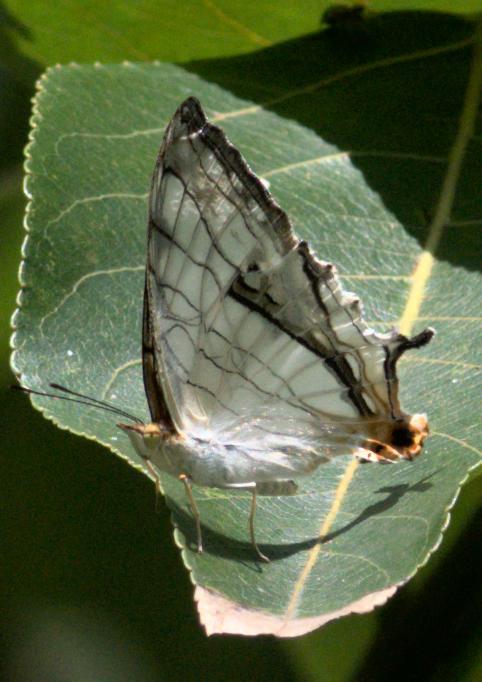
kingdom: Animalia
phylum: Arthropoda
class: Insecta
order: Lepidoptera
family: Nymphalidae
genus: Cyrestis
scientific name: Cyrestis thyodamas
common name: Common mapwing
